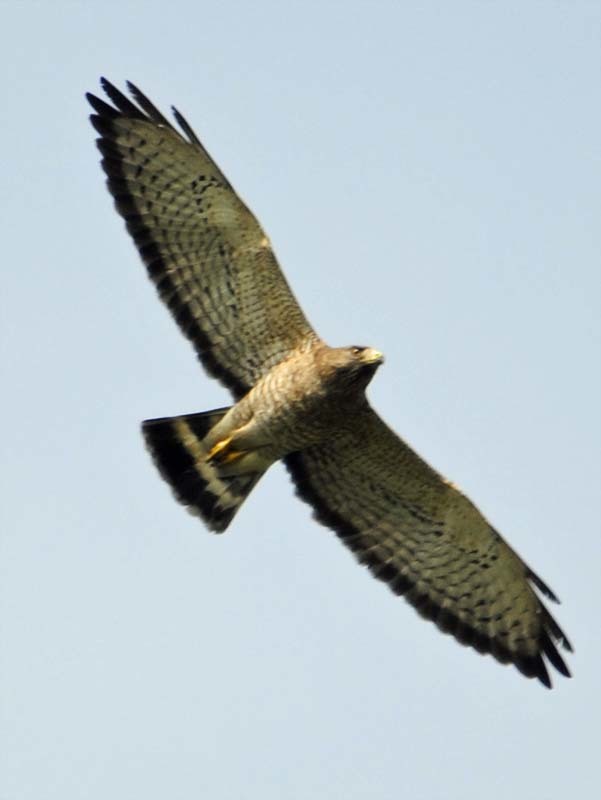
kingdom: Animalia
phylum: Chordata
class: Aves
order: Accipitriformes
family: Accipitridae
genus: Buteo
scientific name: Buteo platypterus
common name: Broad-winged hawk
